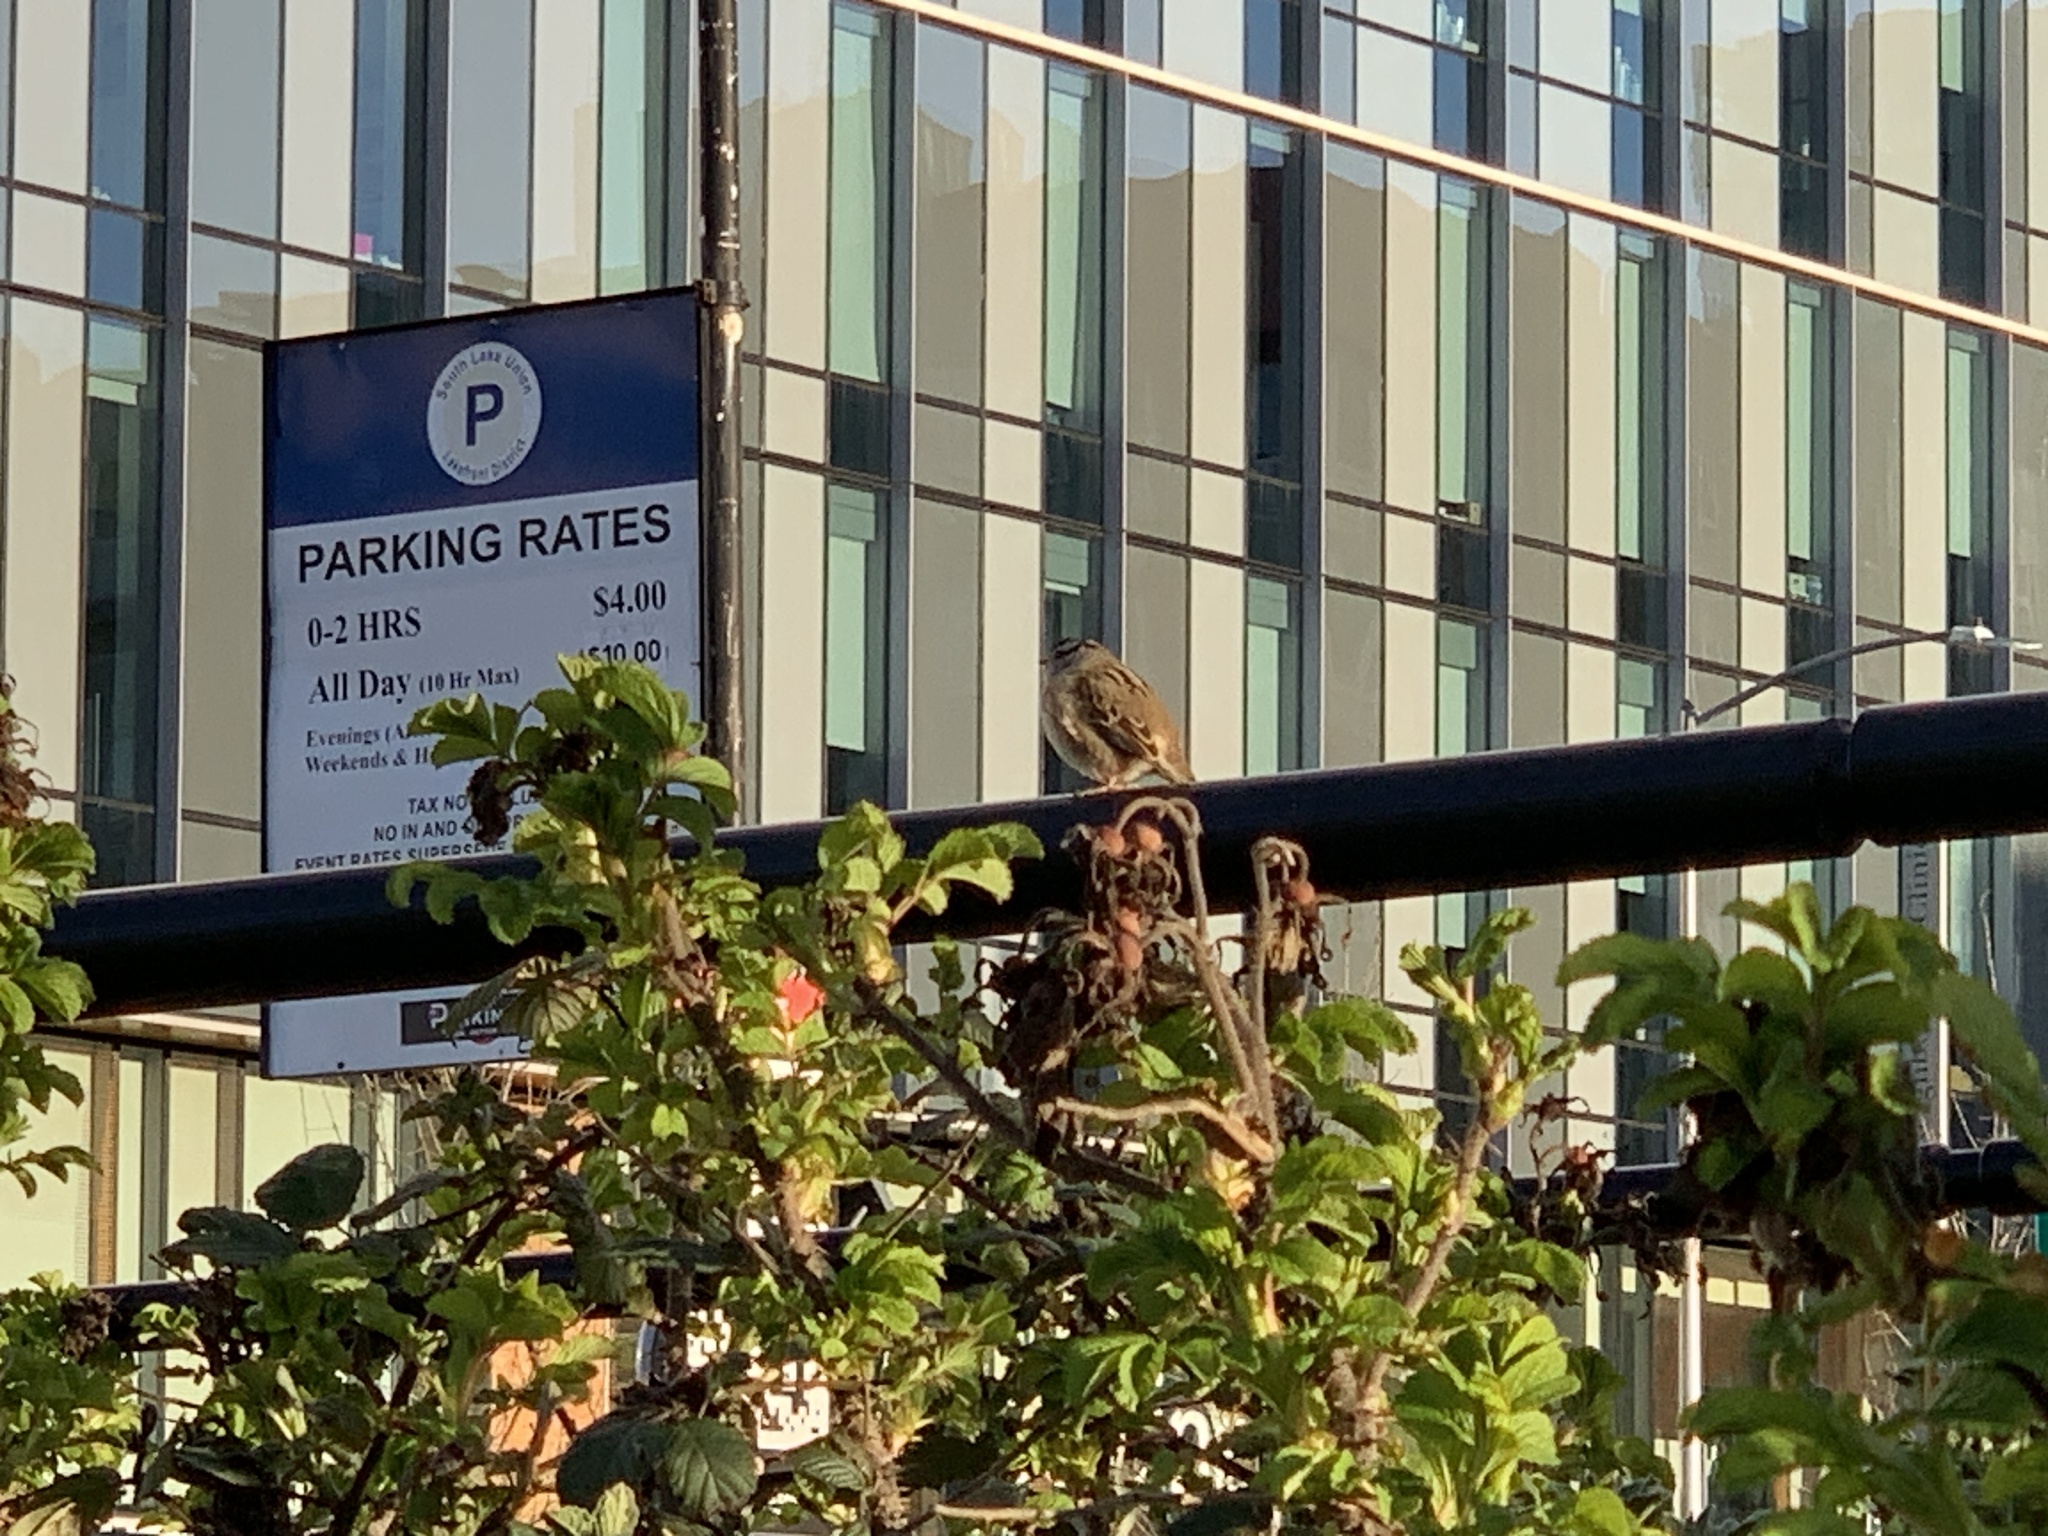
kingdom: Animalia
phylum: Chordata
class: Aves
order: Passeriformes
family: Passerellidae
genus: Zonotrichia
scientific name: Zonotrichia leucophrys
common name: White-crowned sparrow
